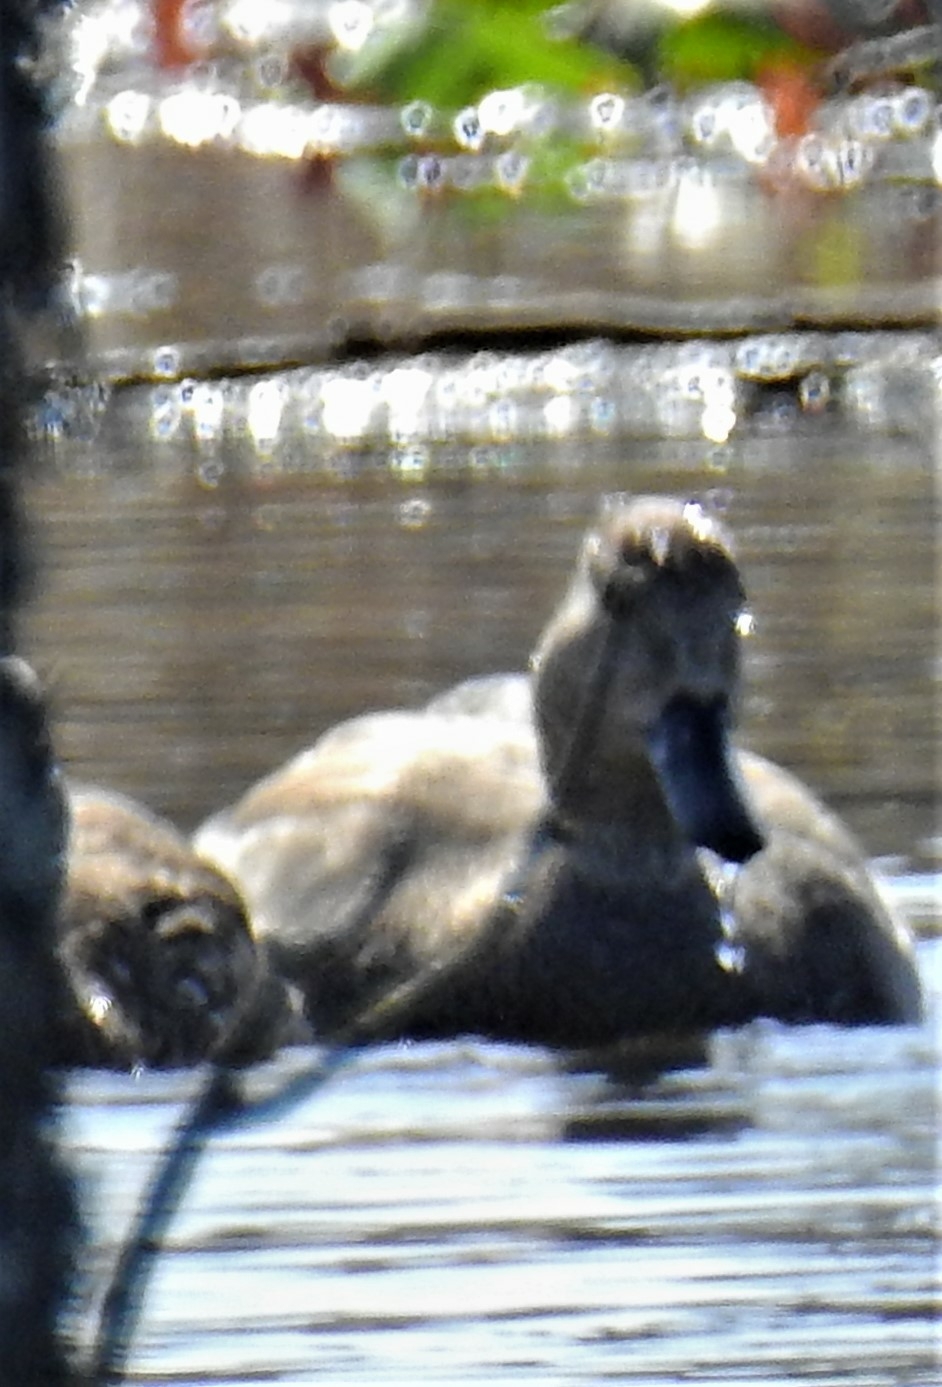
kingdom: Animalia
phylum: Chordata
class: Aves
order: Anseriformes
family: Anatidae
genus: Mareca
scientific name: Mareca strepera
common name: Gadwall
